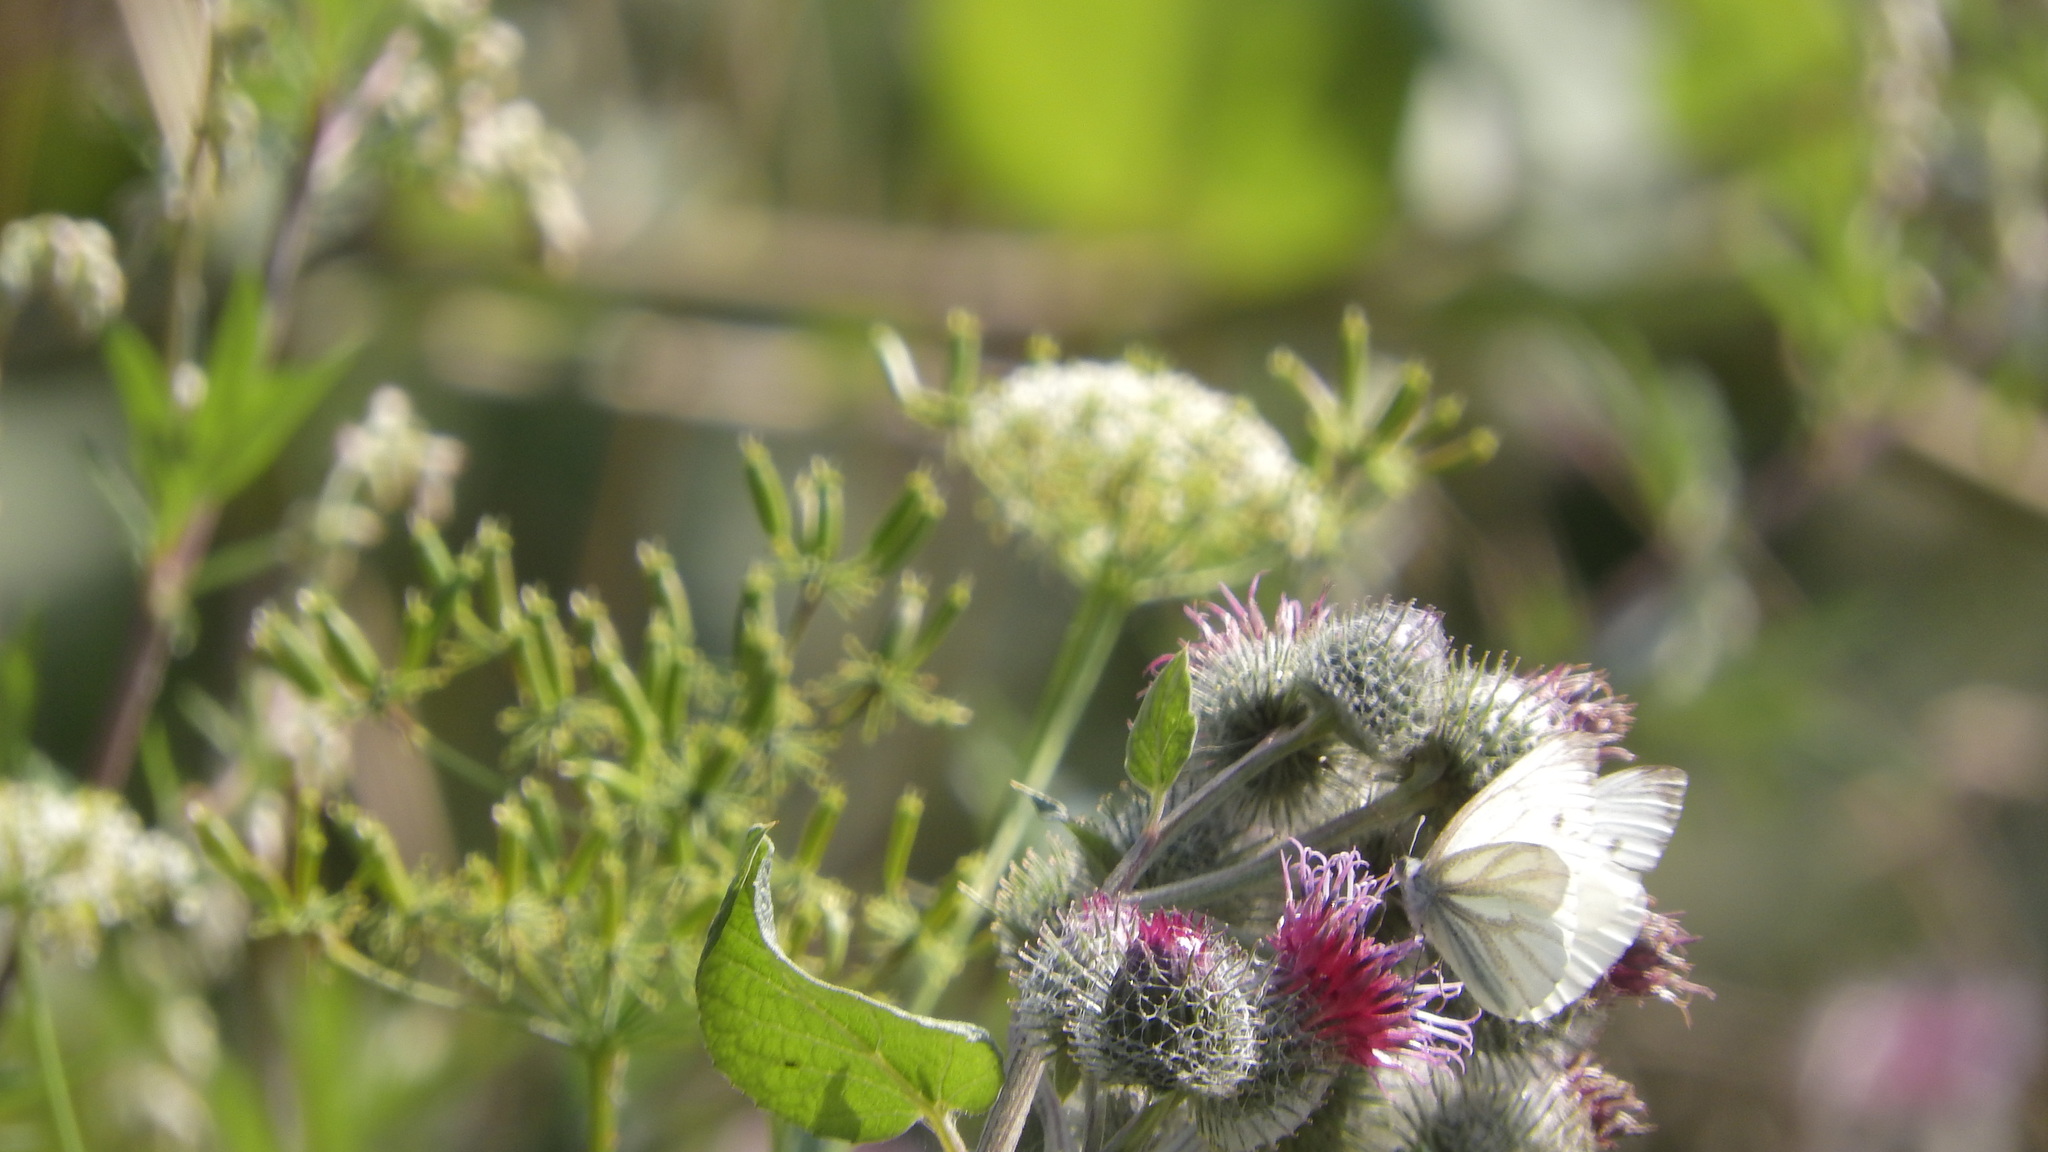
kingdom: Animalia
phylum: Arthropoda
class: Insecta
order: Lepidoptera
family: Pieridae
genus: Pieris
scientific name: Pieris napi
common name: Green-veined white
